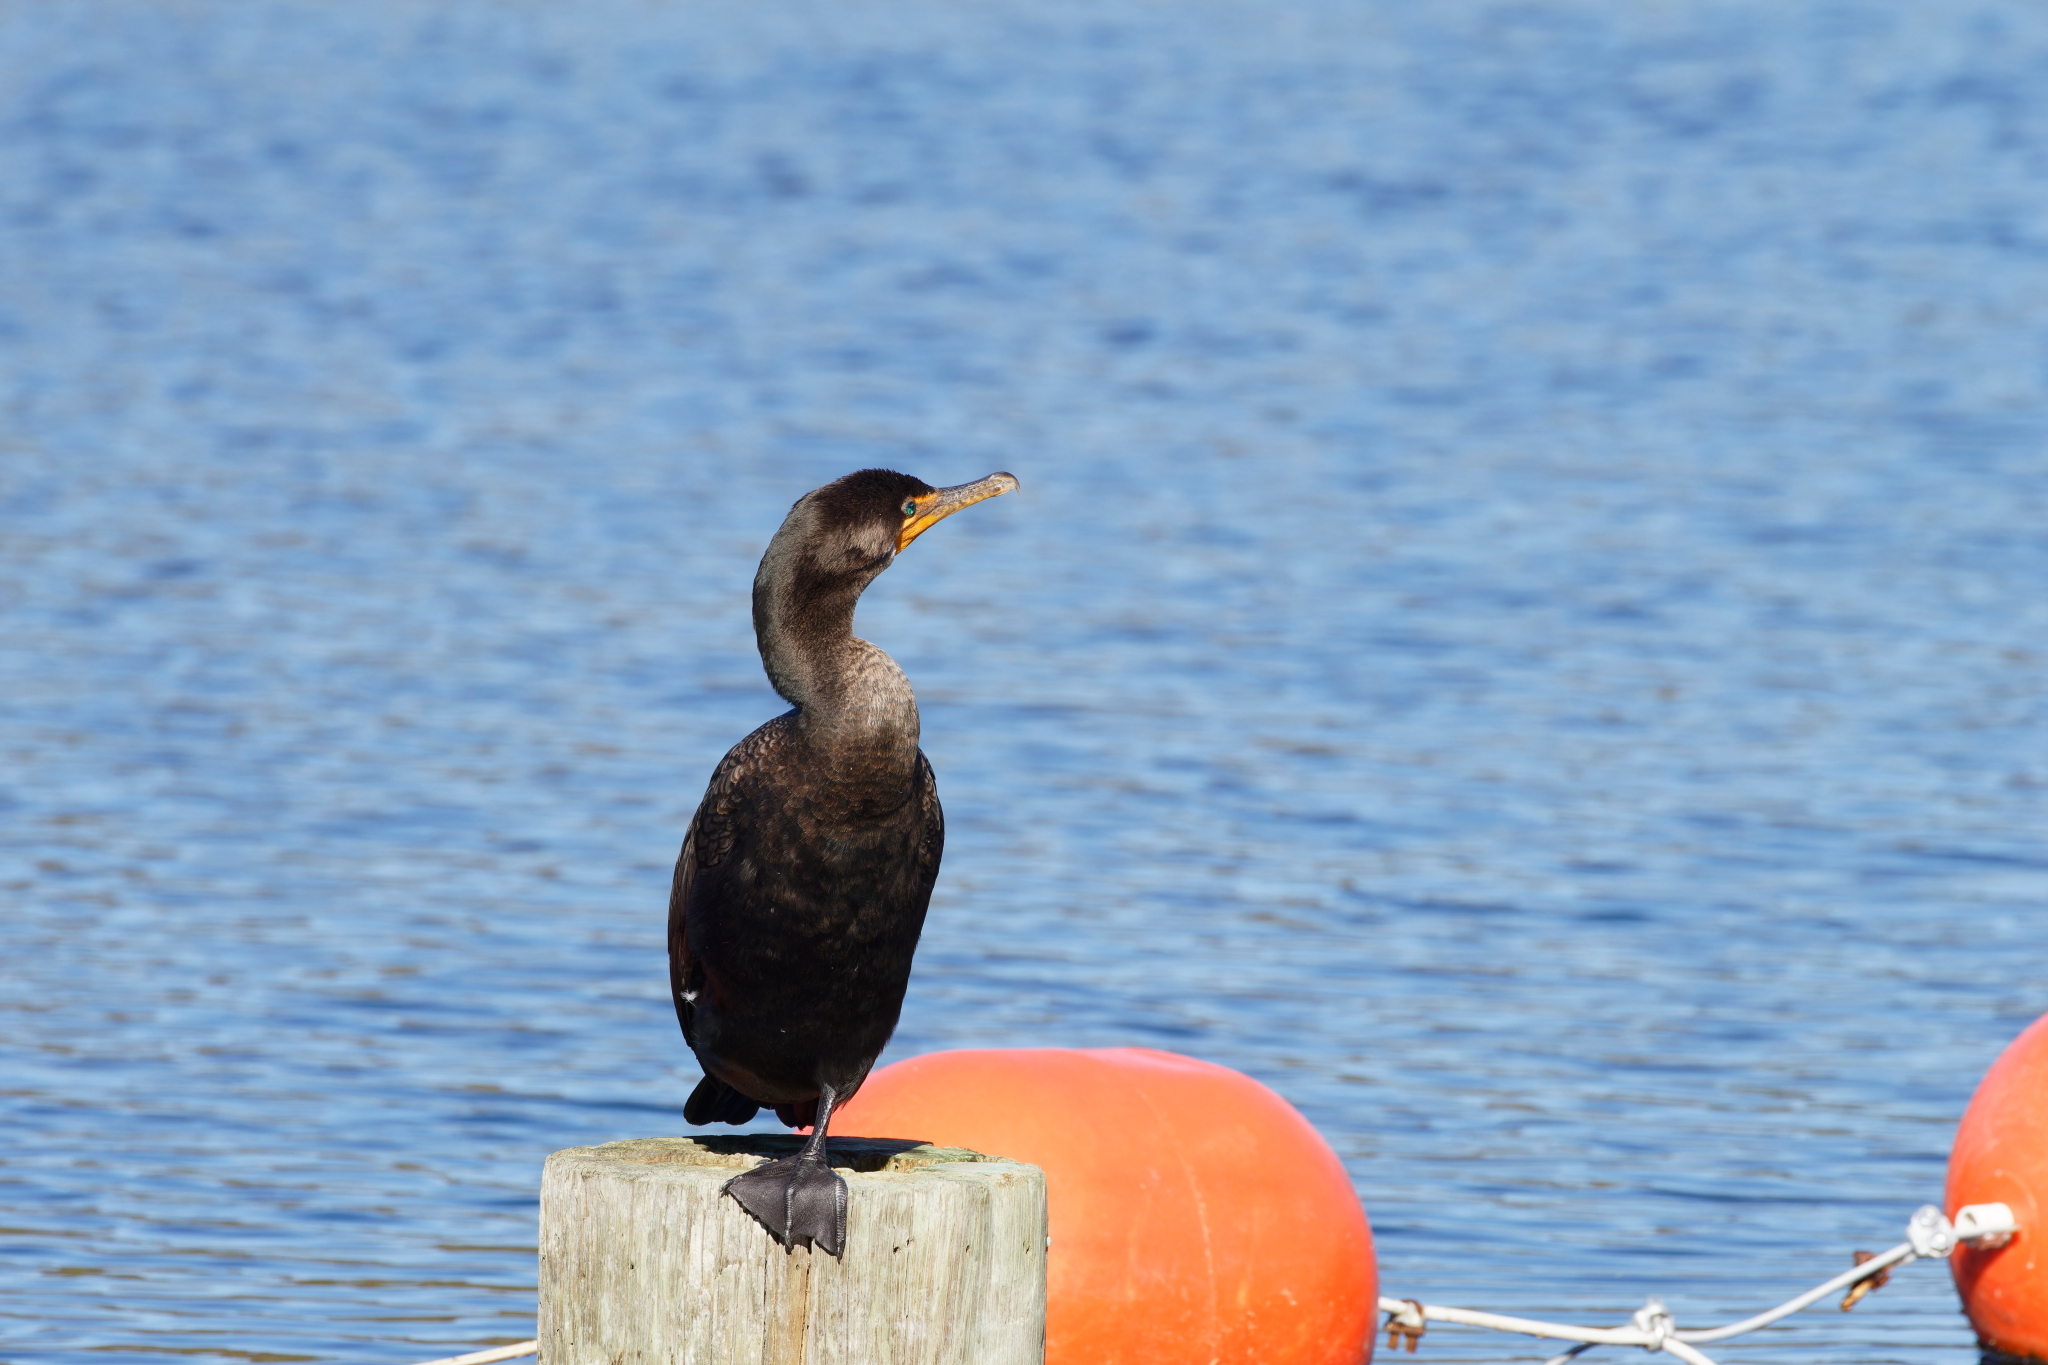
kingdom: Animalia
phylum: Chordata
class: Aves
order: Suliformes
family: Phalacrocoracidae
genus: Phalacrocorax
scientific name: Phalacrocorax auritus
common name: Double-crested cormorant
